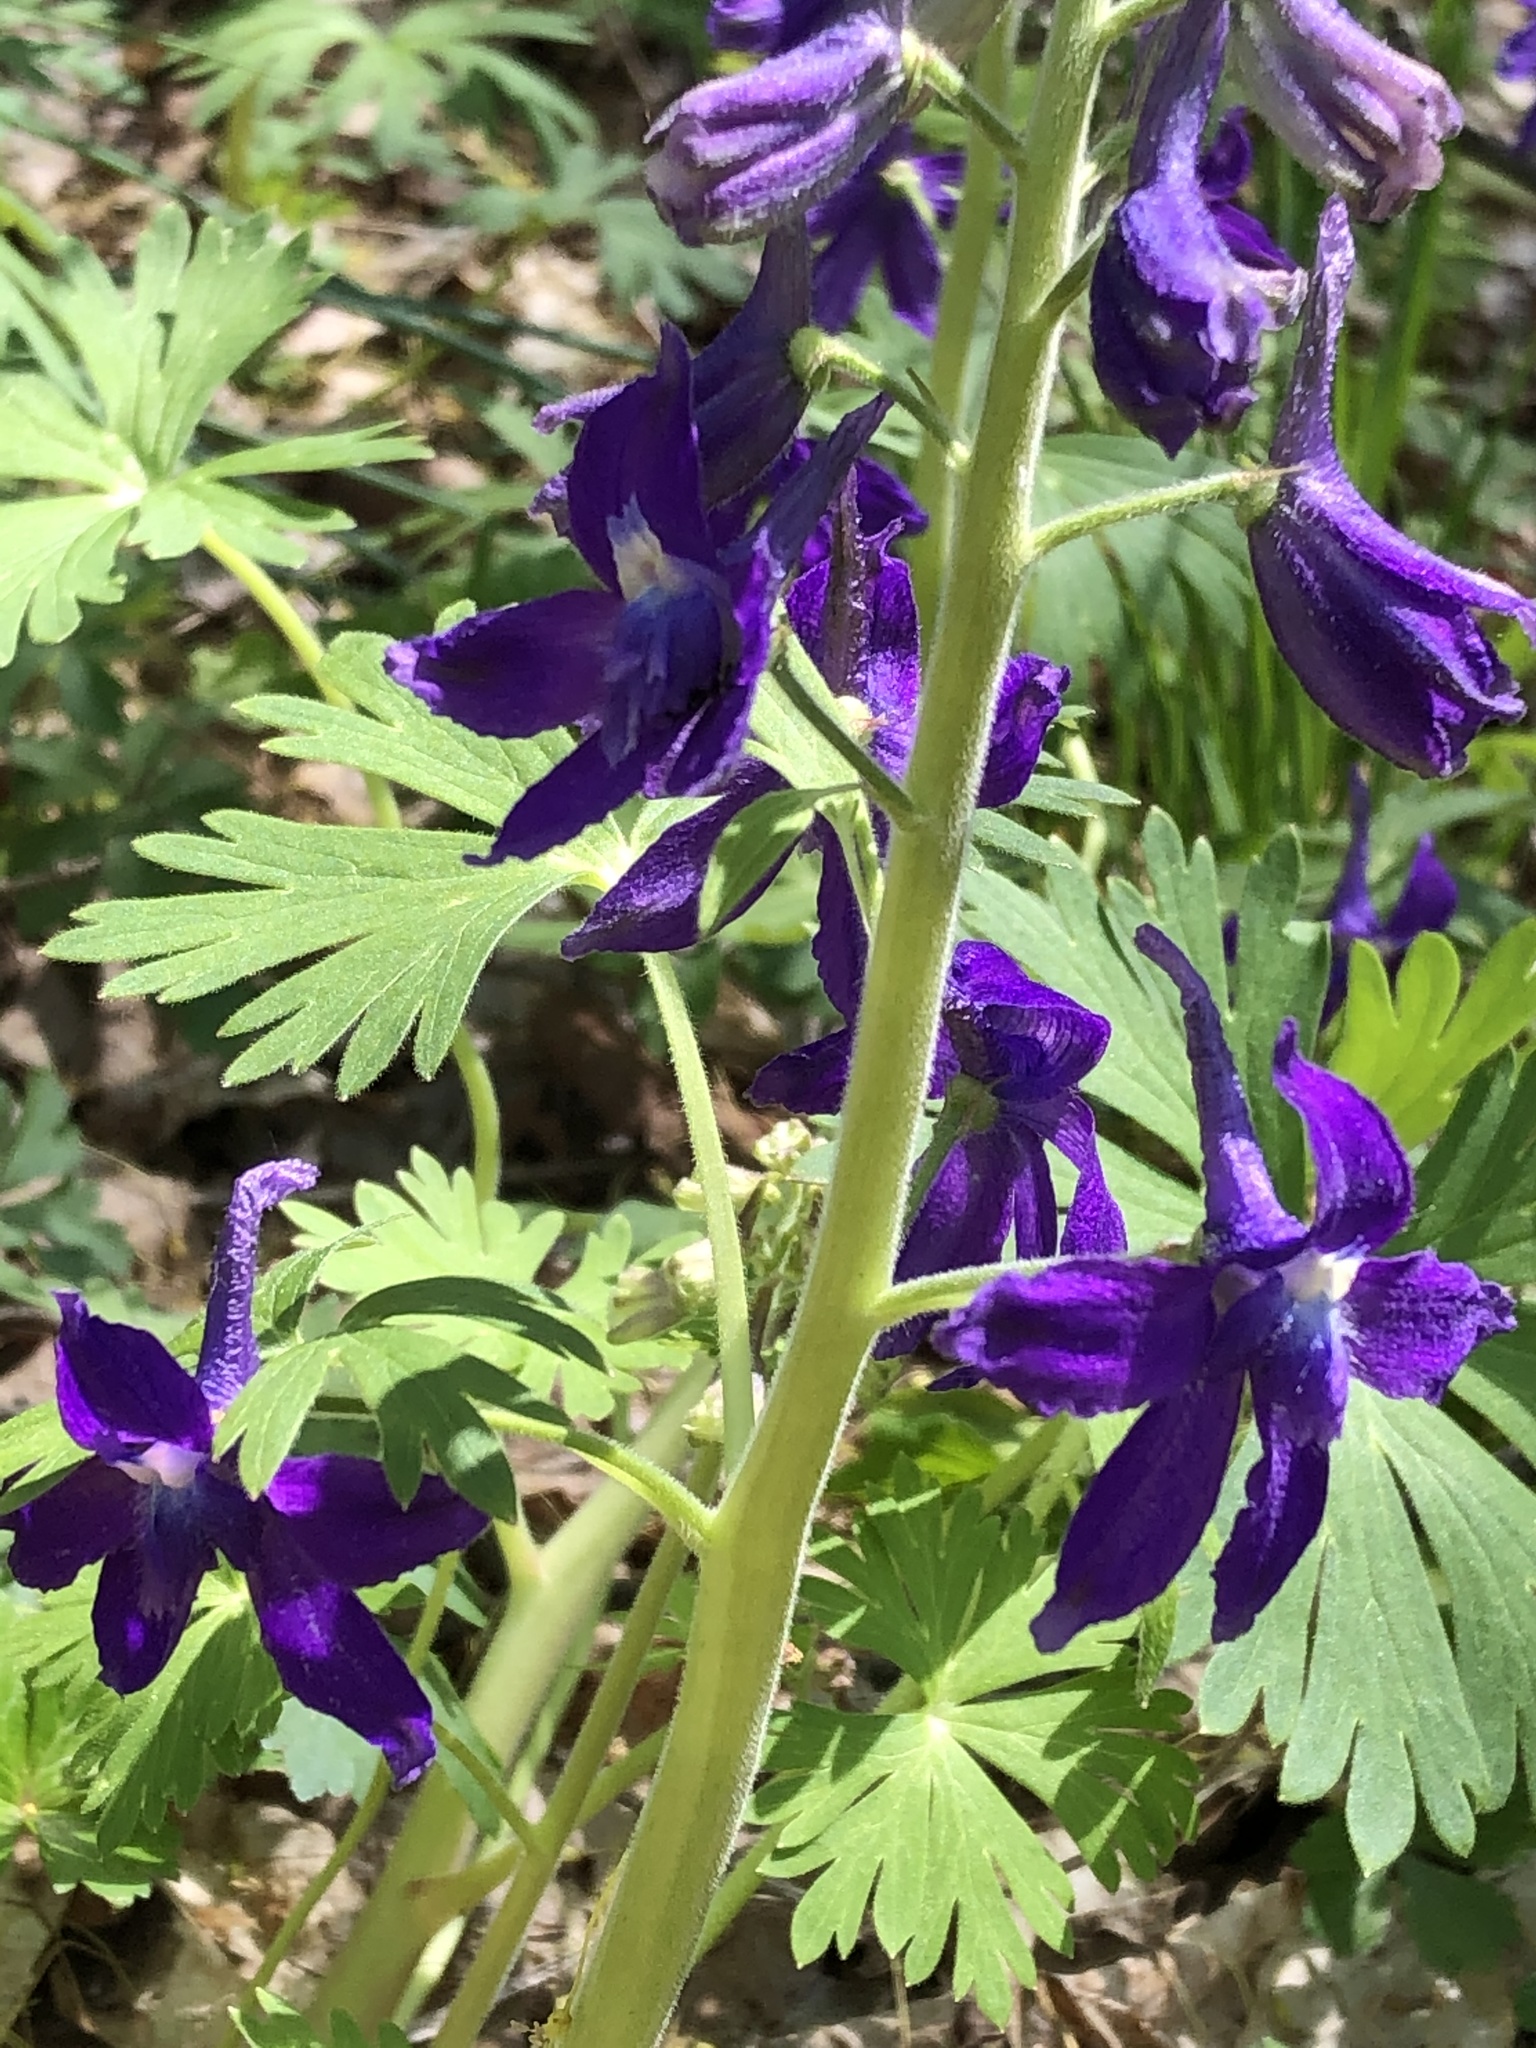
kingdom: Plantae
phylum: Tracheophyta
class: Magnoliopsida
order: Ranunculales
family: Ranunculaceae
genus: Delphinium
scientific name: Delphinium tricorne
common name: Dwarf larkspur
